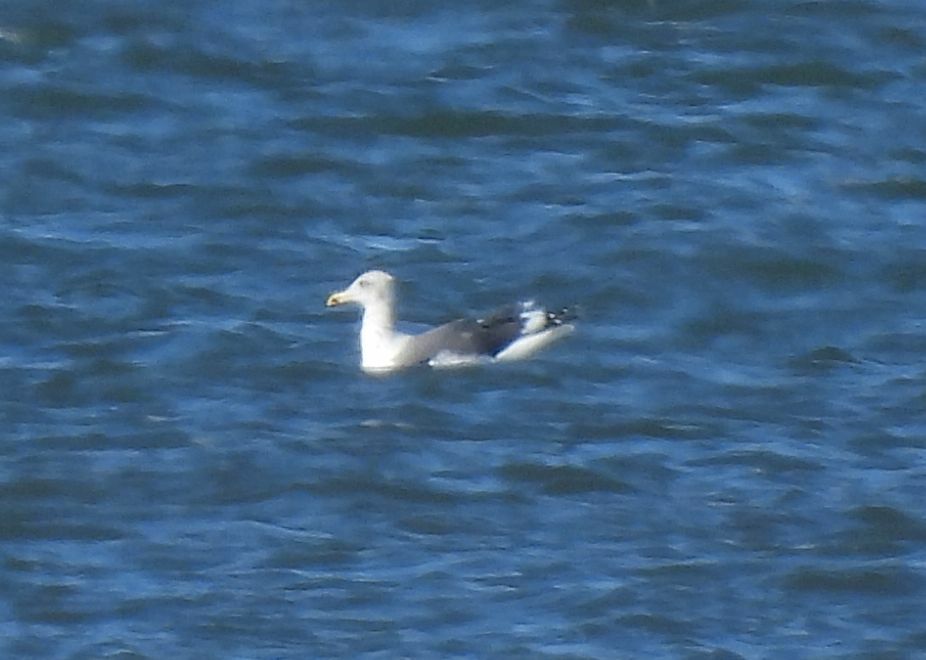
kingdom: Animalia
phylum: Chordata
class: Aves
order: Charadriiformes
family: Laridae
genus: Larus
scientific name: Larus fuscus
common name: Lesser black-backed gull
